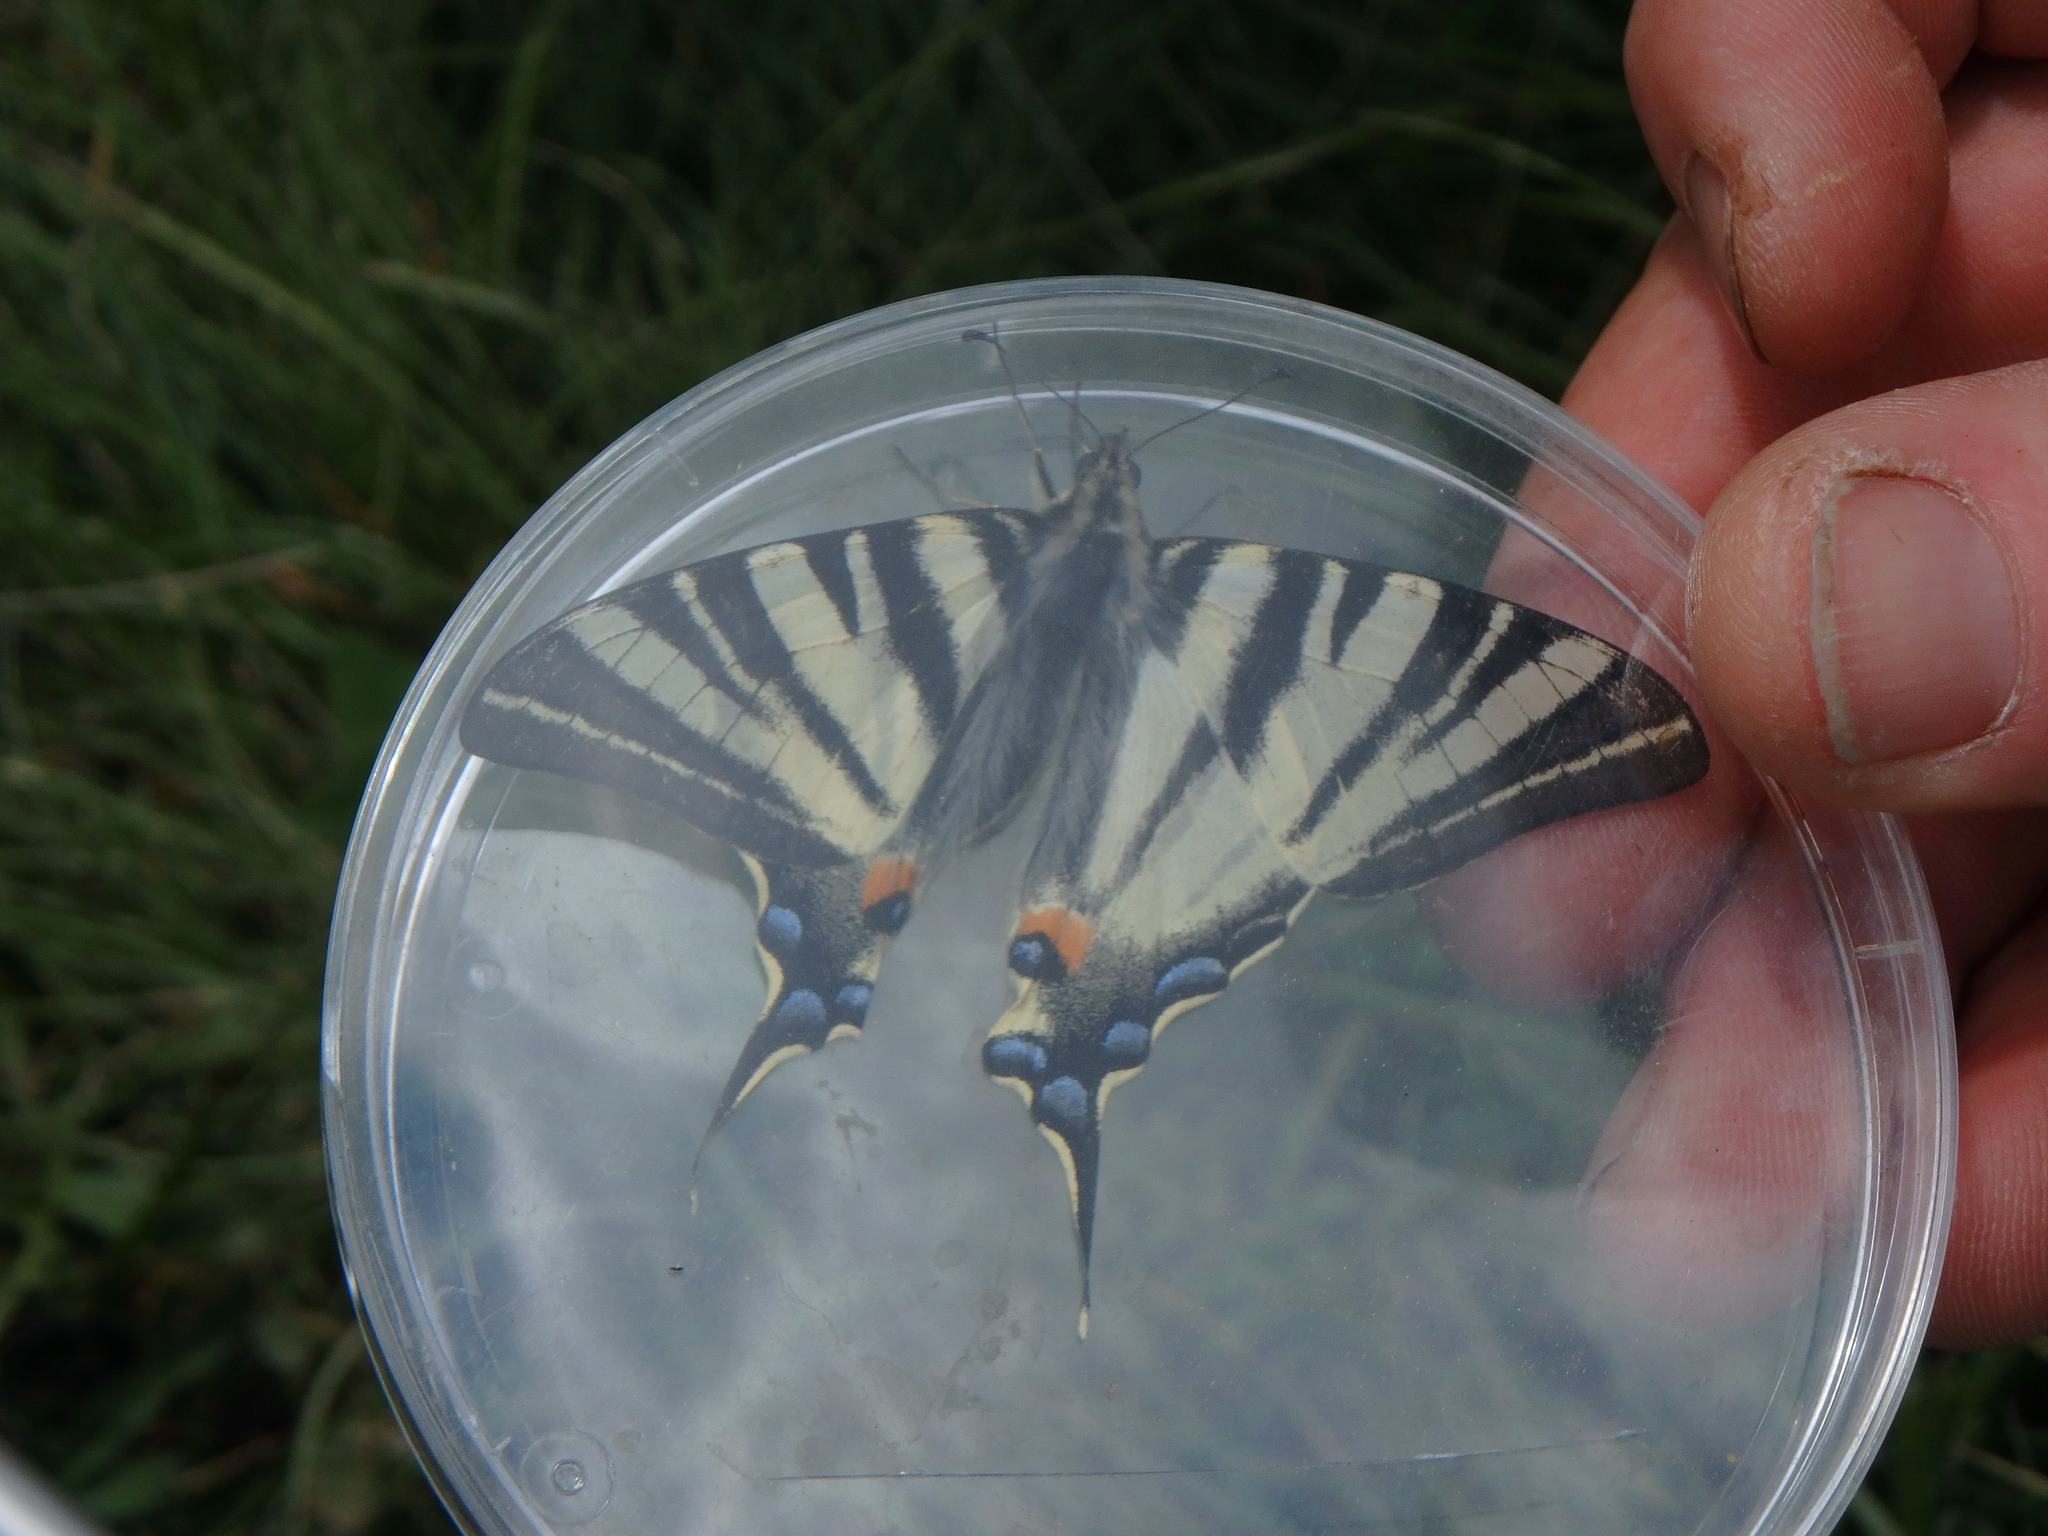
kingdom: Animalia
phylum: Arthropoda
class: Insecta
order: Lepidoptera
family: Papilionidae
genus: Iphiclides
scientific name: Iphiclides podalirius
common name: Scarce swallowtail
